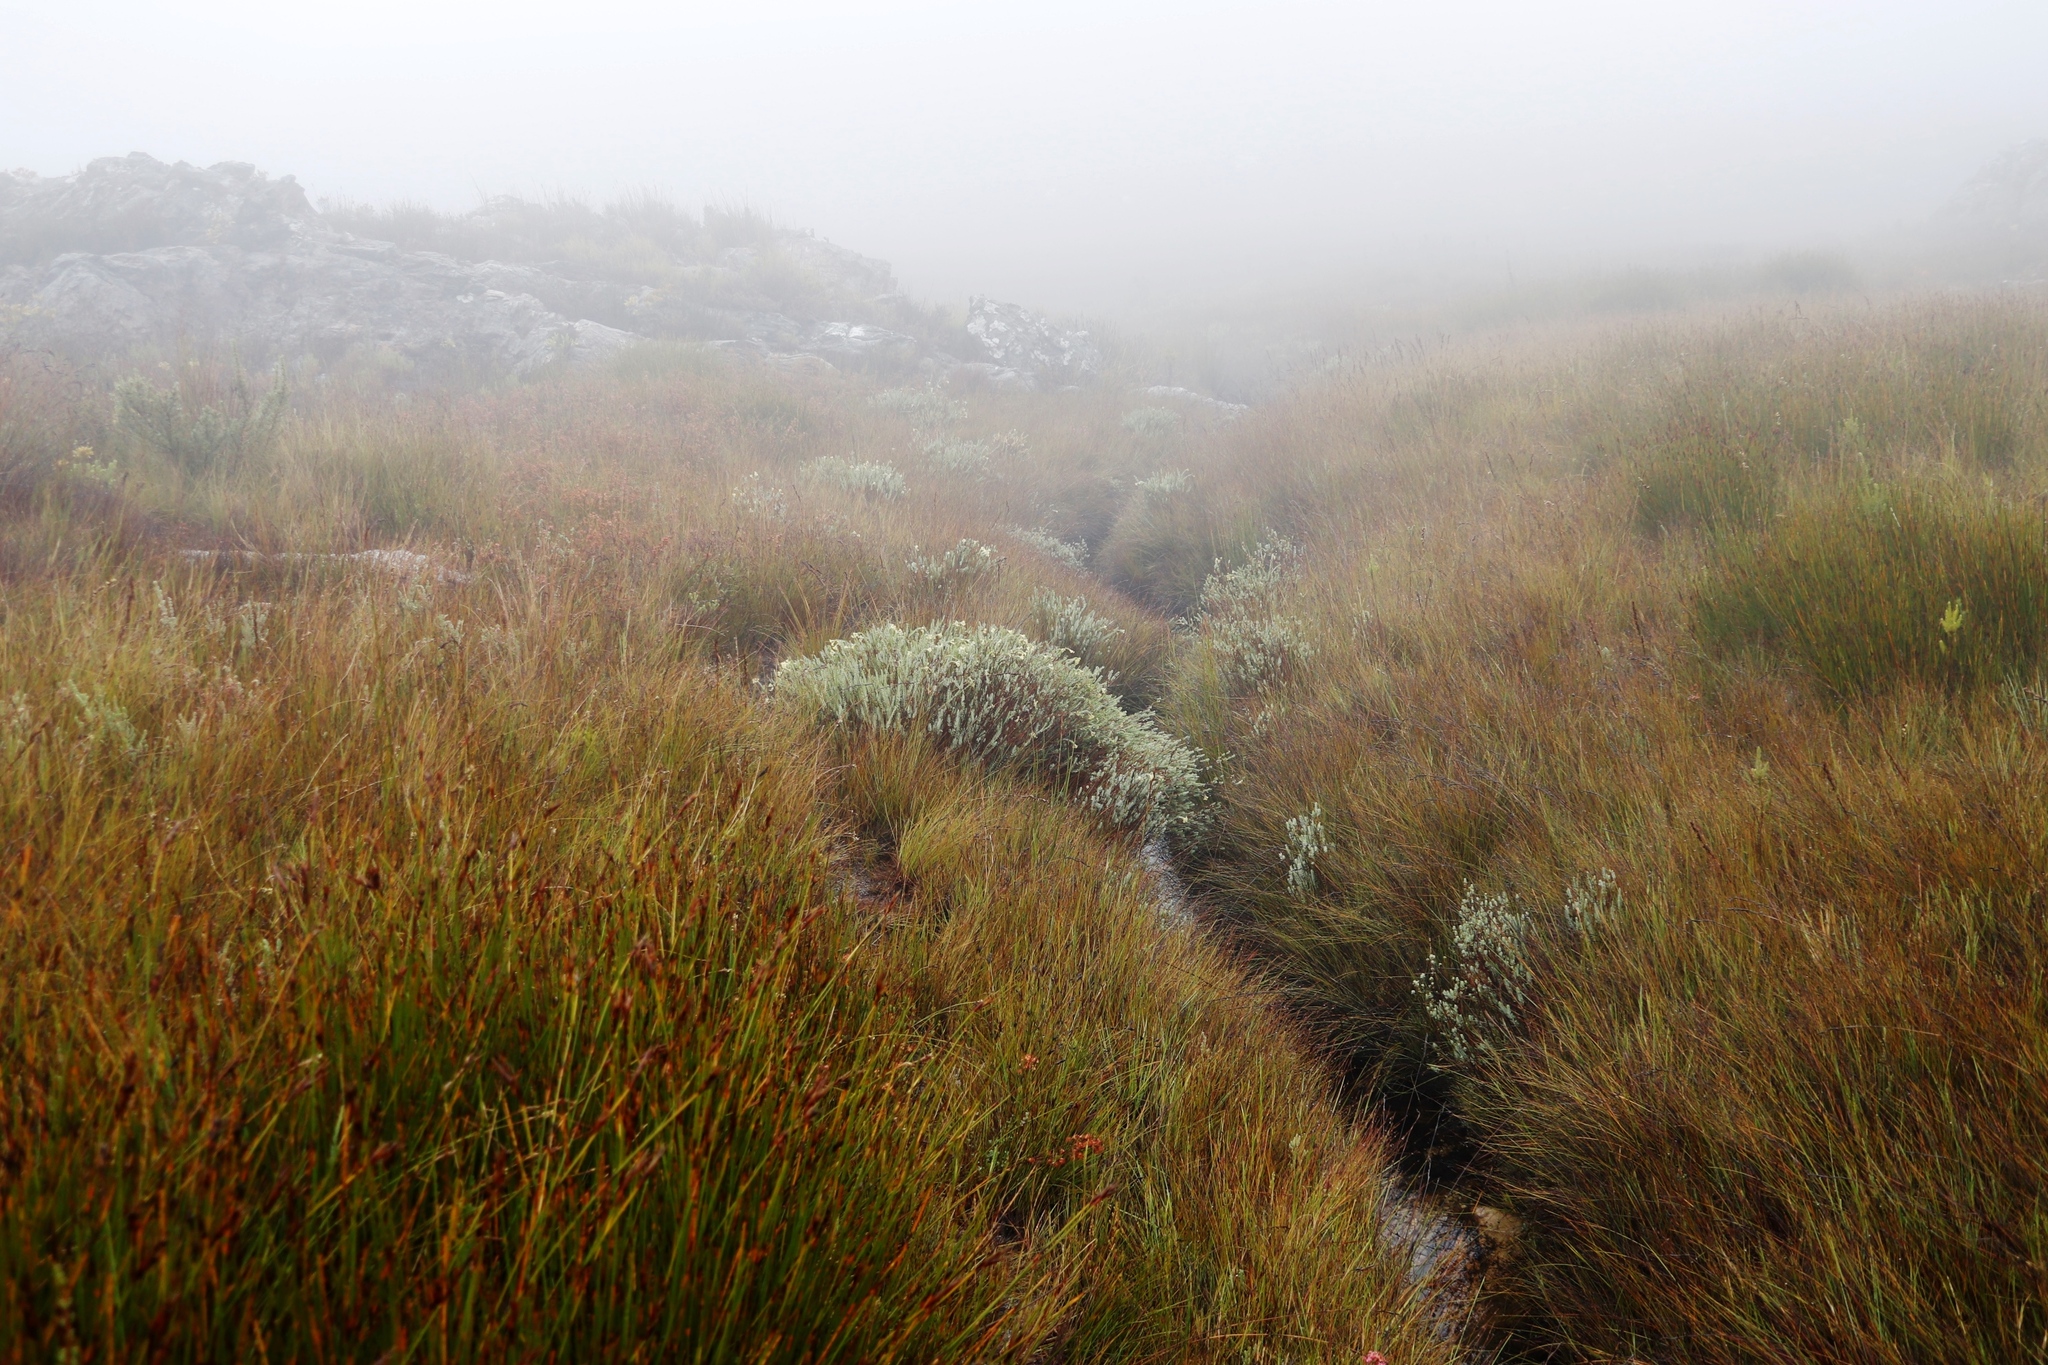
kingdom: Plantae
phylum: Tracheophyta
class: Magnoliopsida
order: Malvales
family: Thymelaeaceae
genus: Gnidia
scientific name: Gnidia oppositifolia
